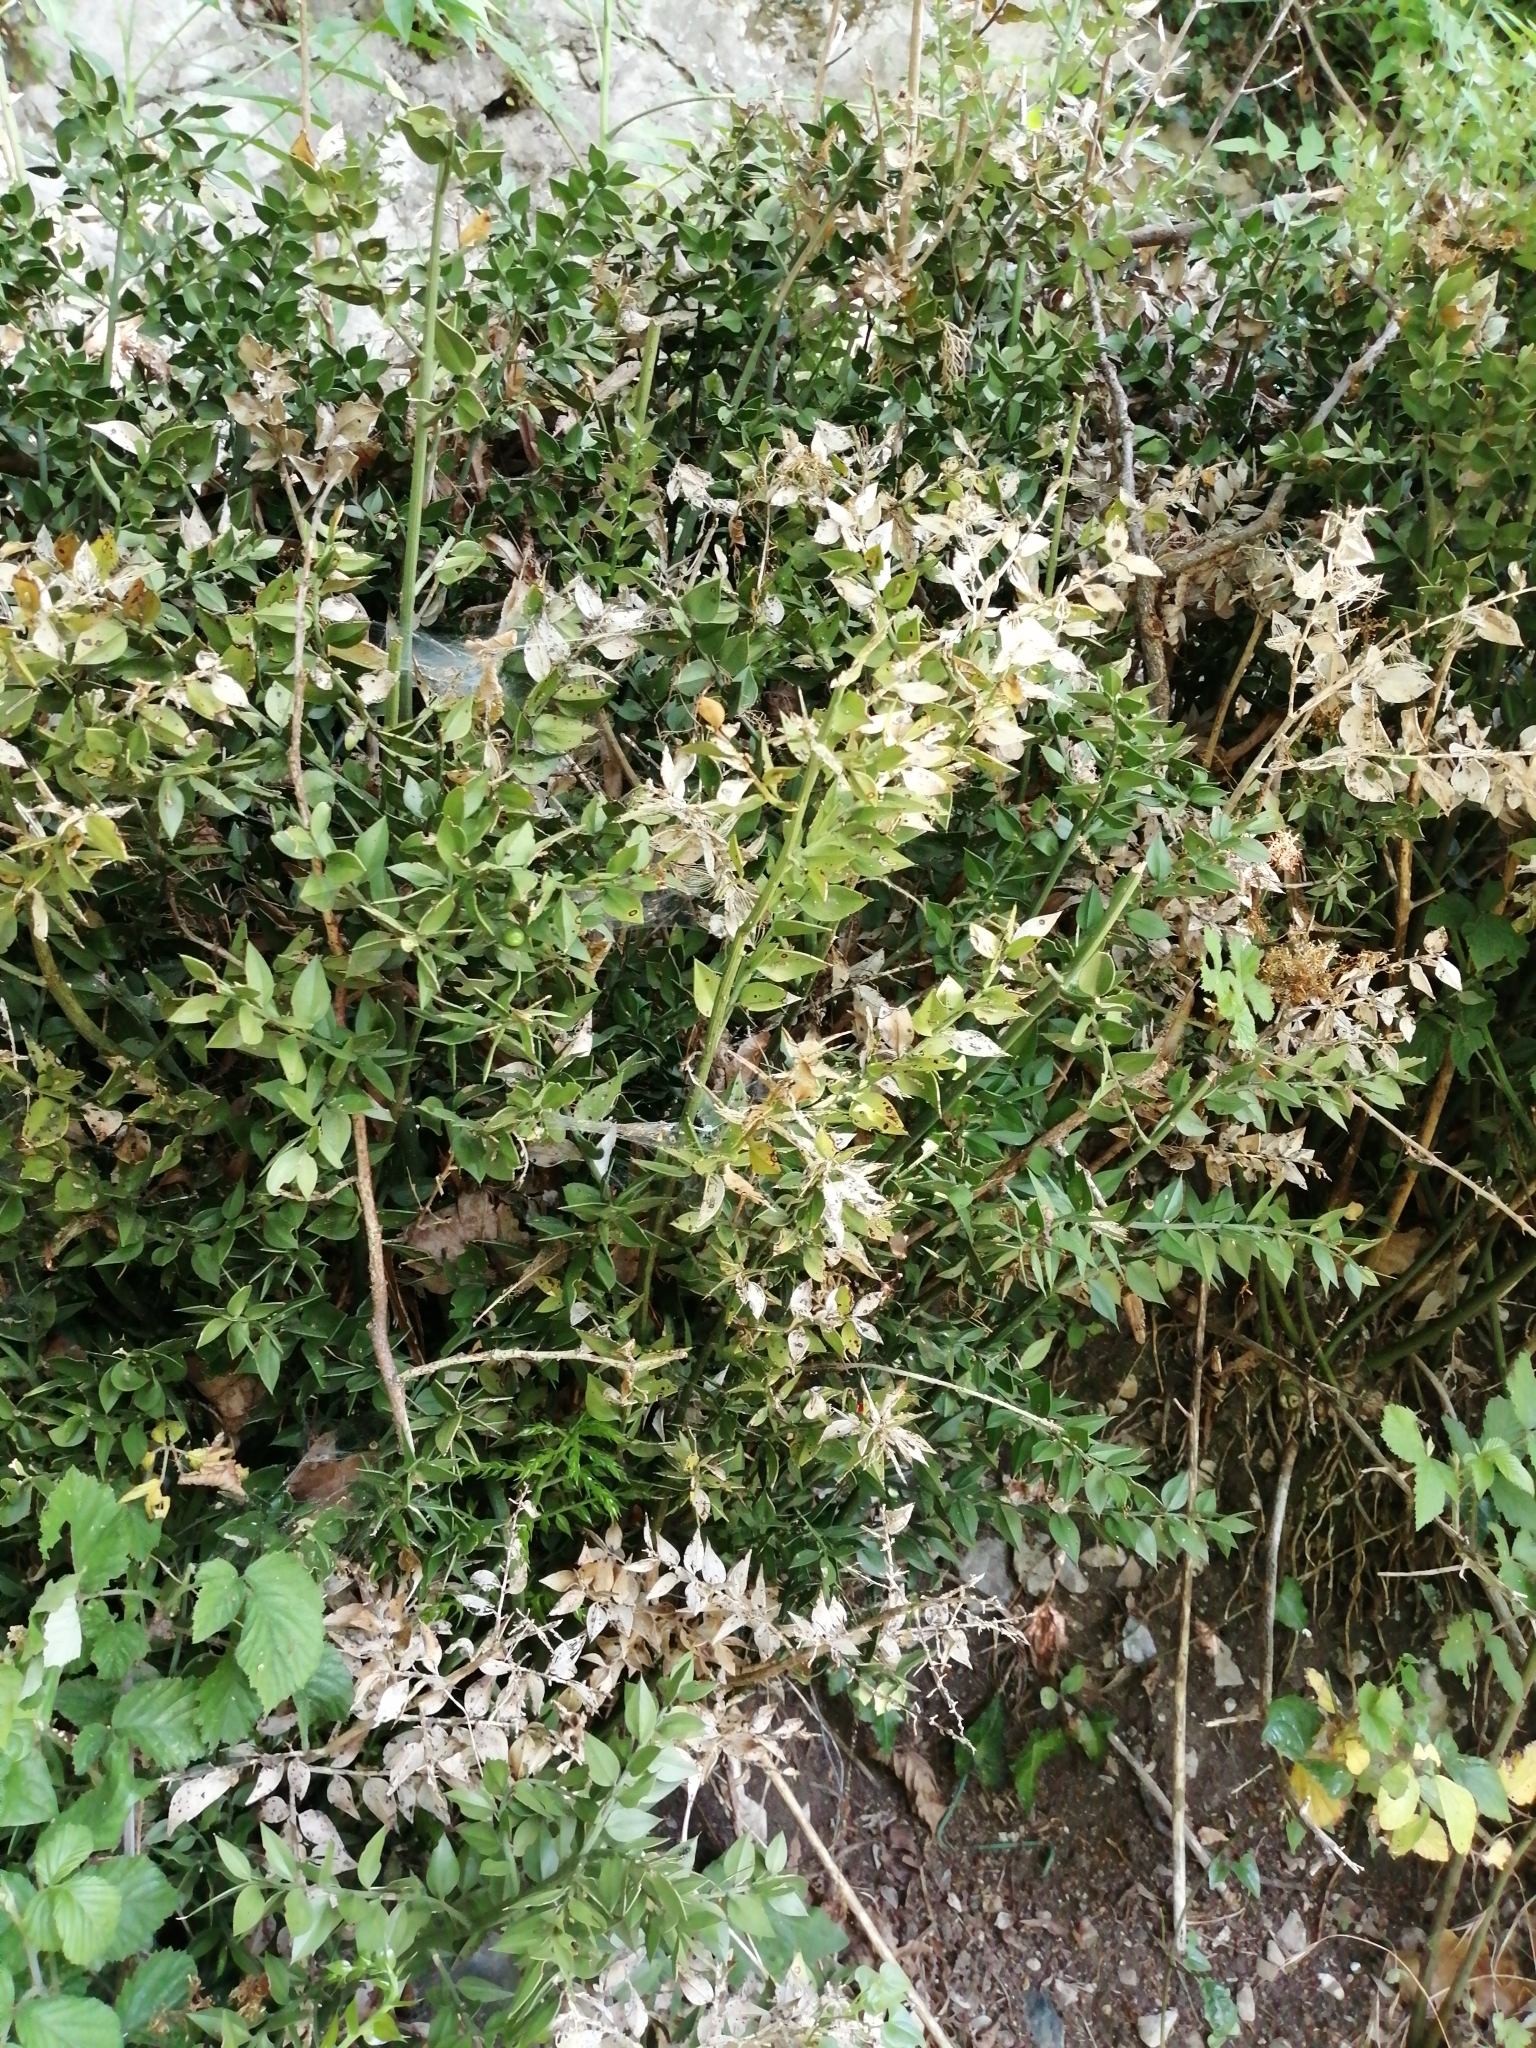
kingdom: Plantae
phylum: Tracheophyta
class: Liliopsida
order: Asparagales
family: Asparagaceae
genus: Ruscus
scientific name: Ruscus aculeatus
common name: Butcher's-broom
